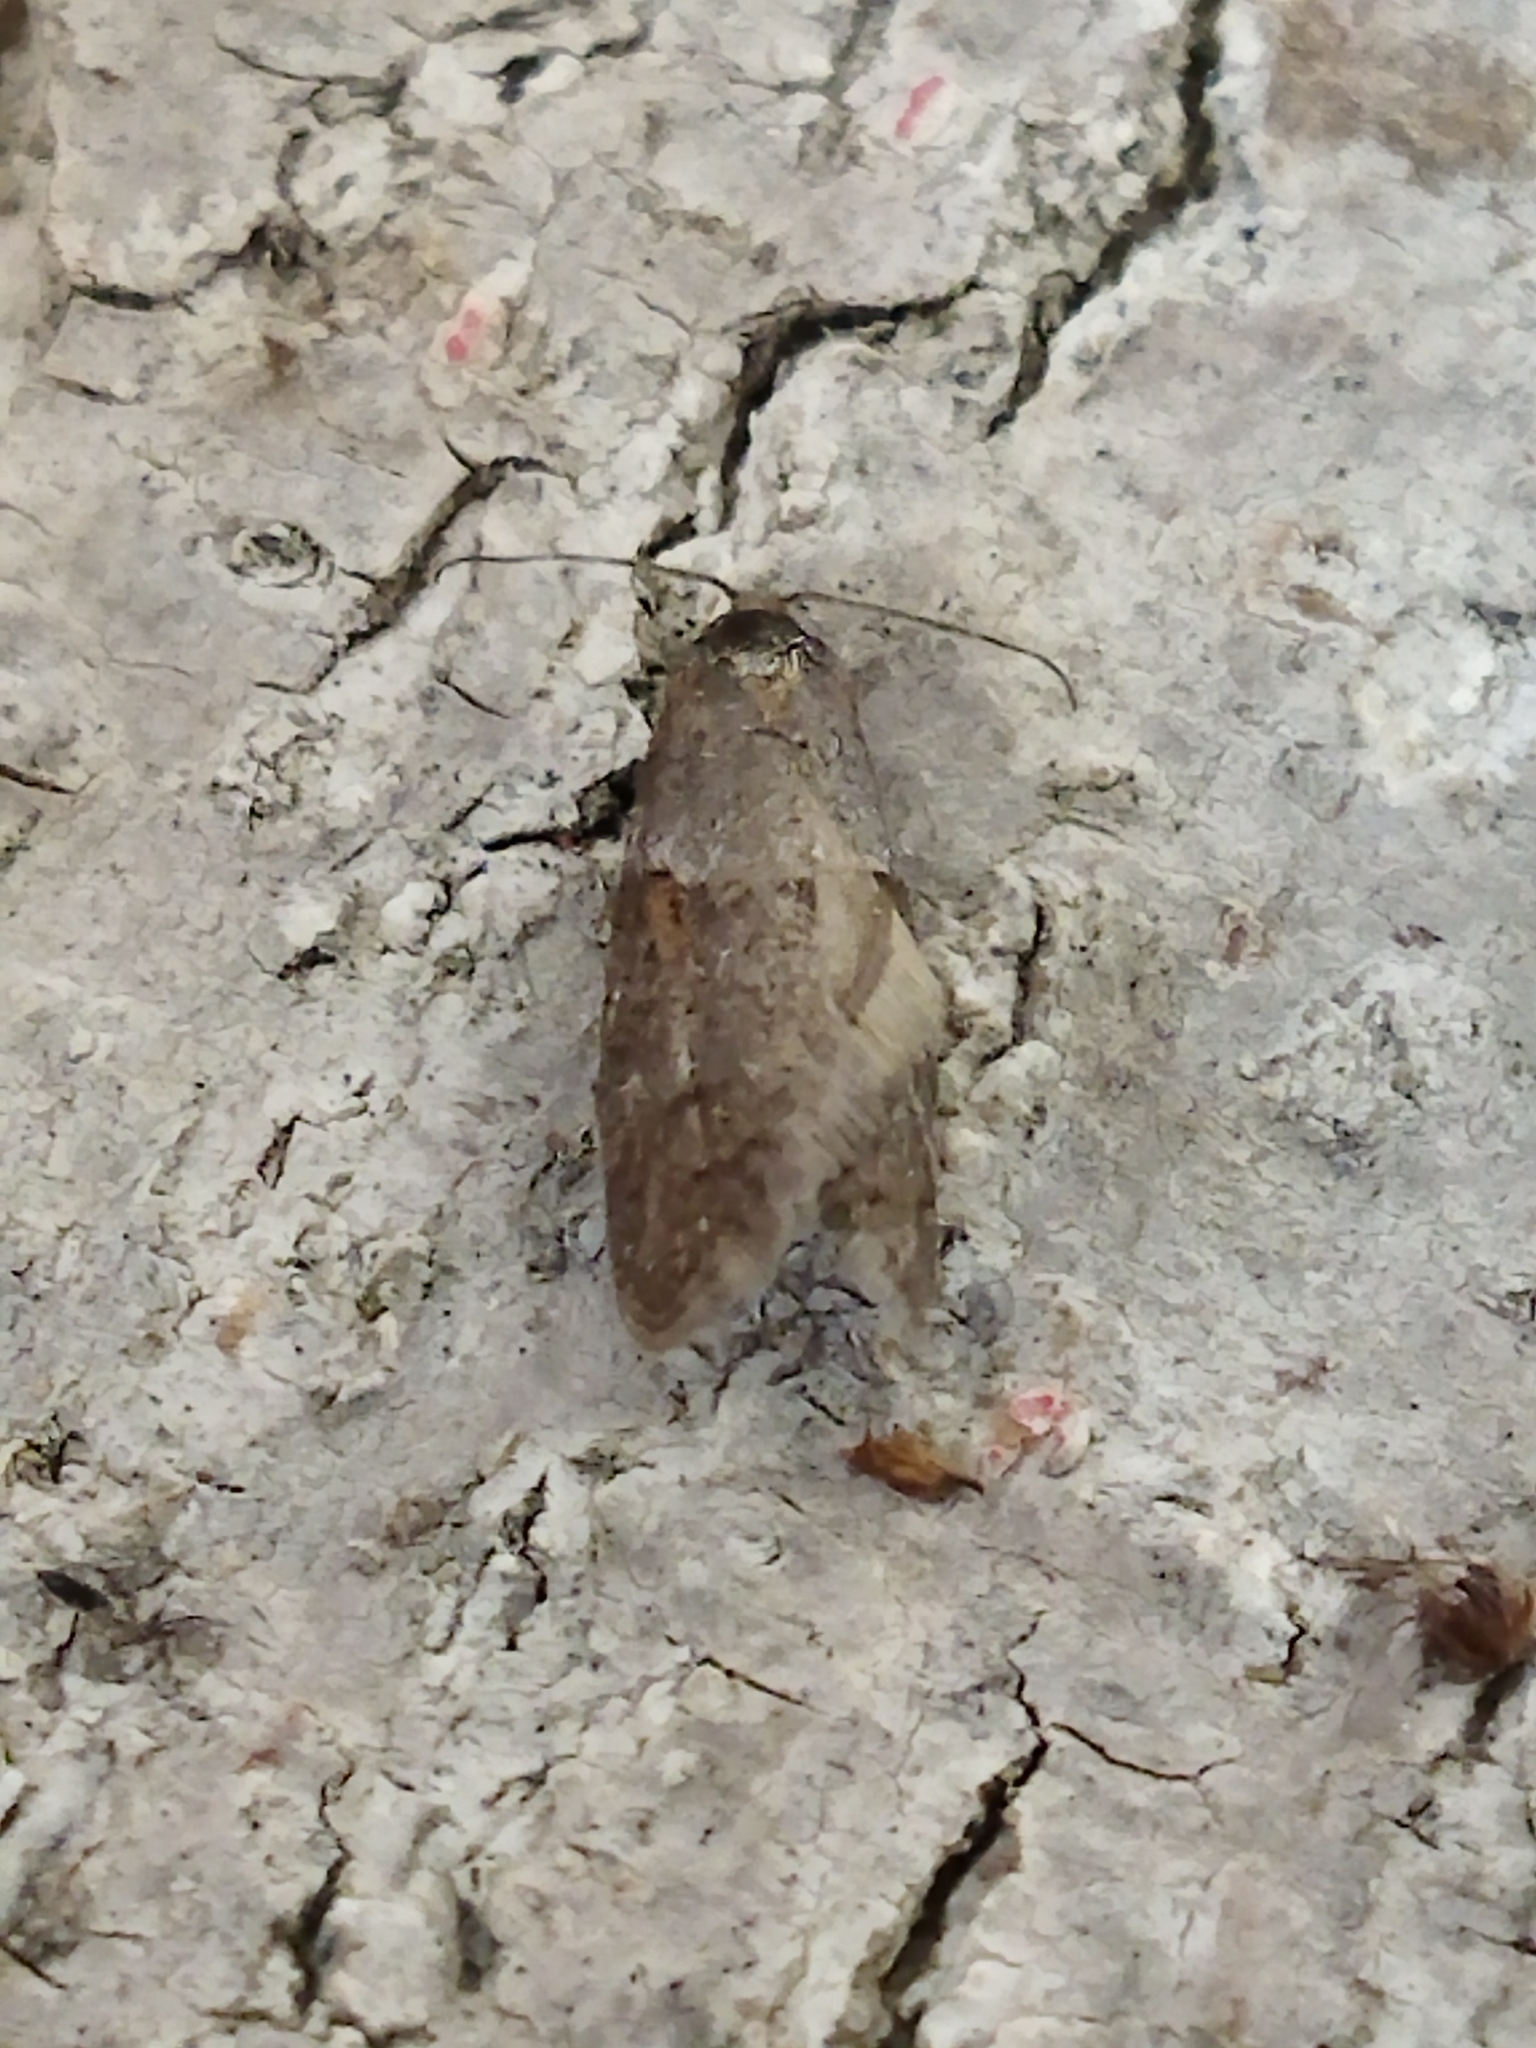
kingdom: Animalia
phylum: Arthropoda
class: Insecta
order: Lepidoptera
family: Tortricidae
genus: Tortricodes
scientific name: Tortricodes alternella
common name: Winter shade
